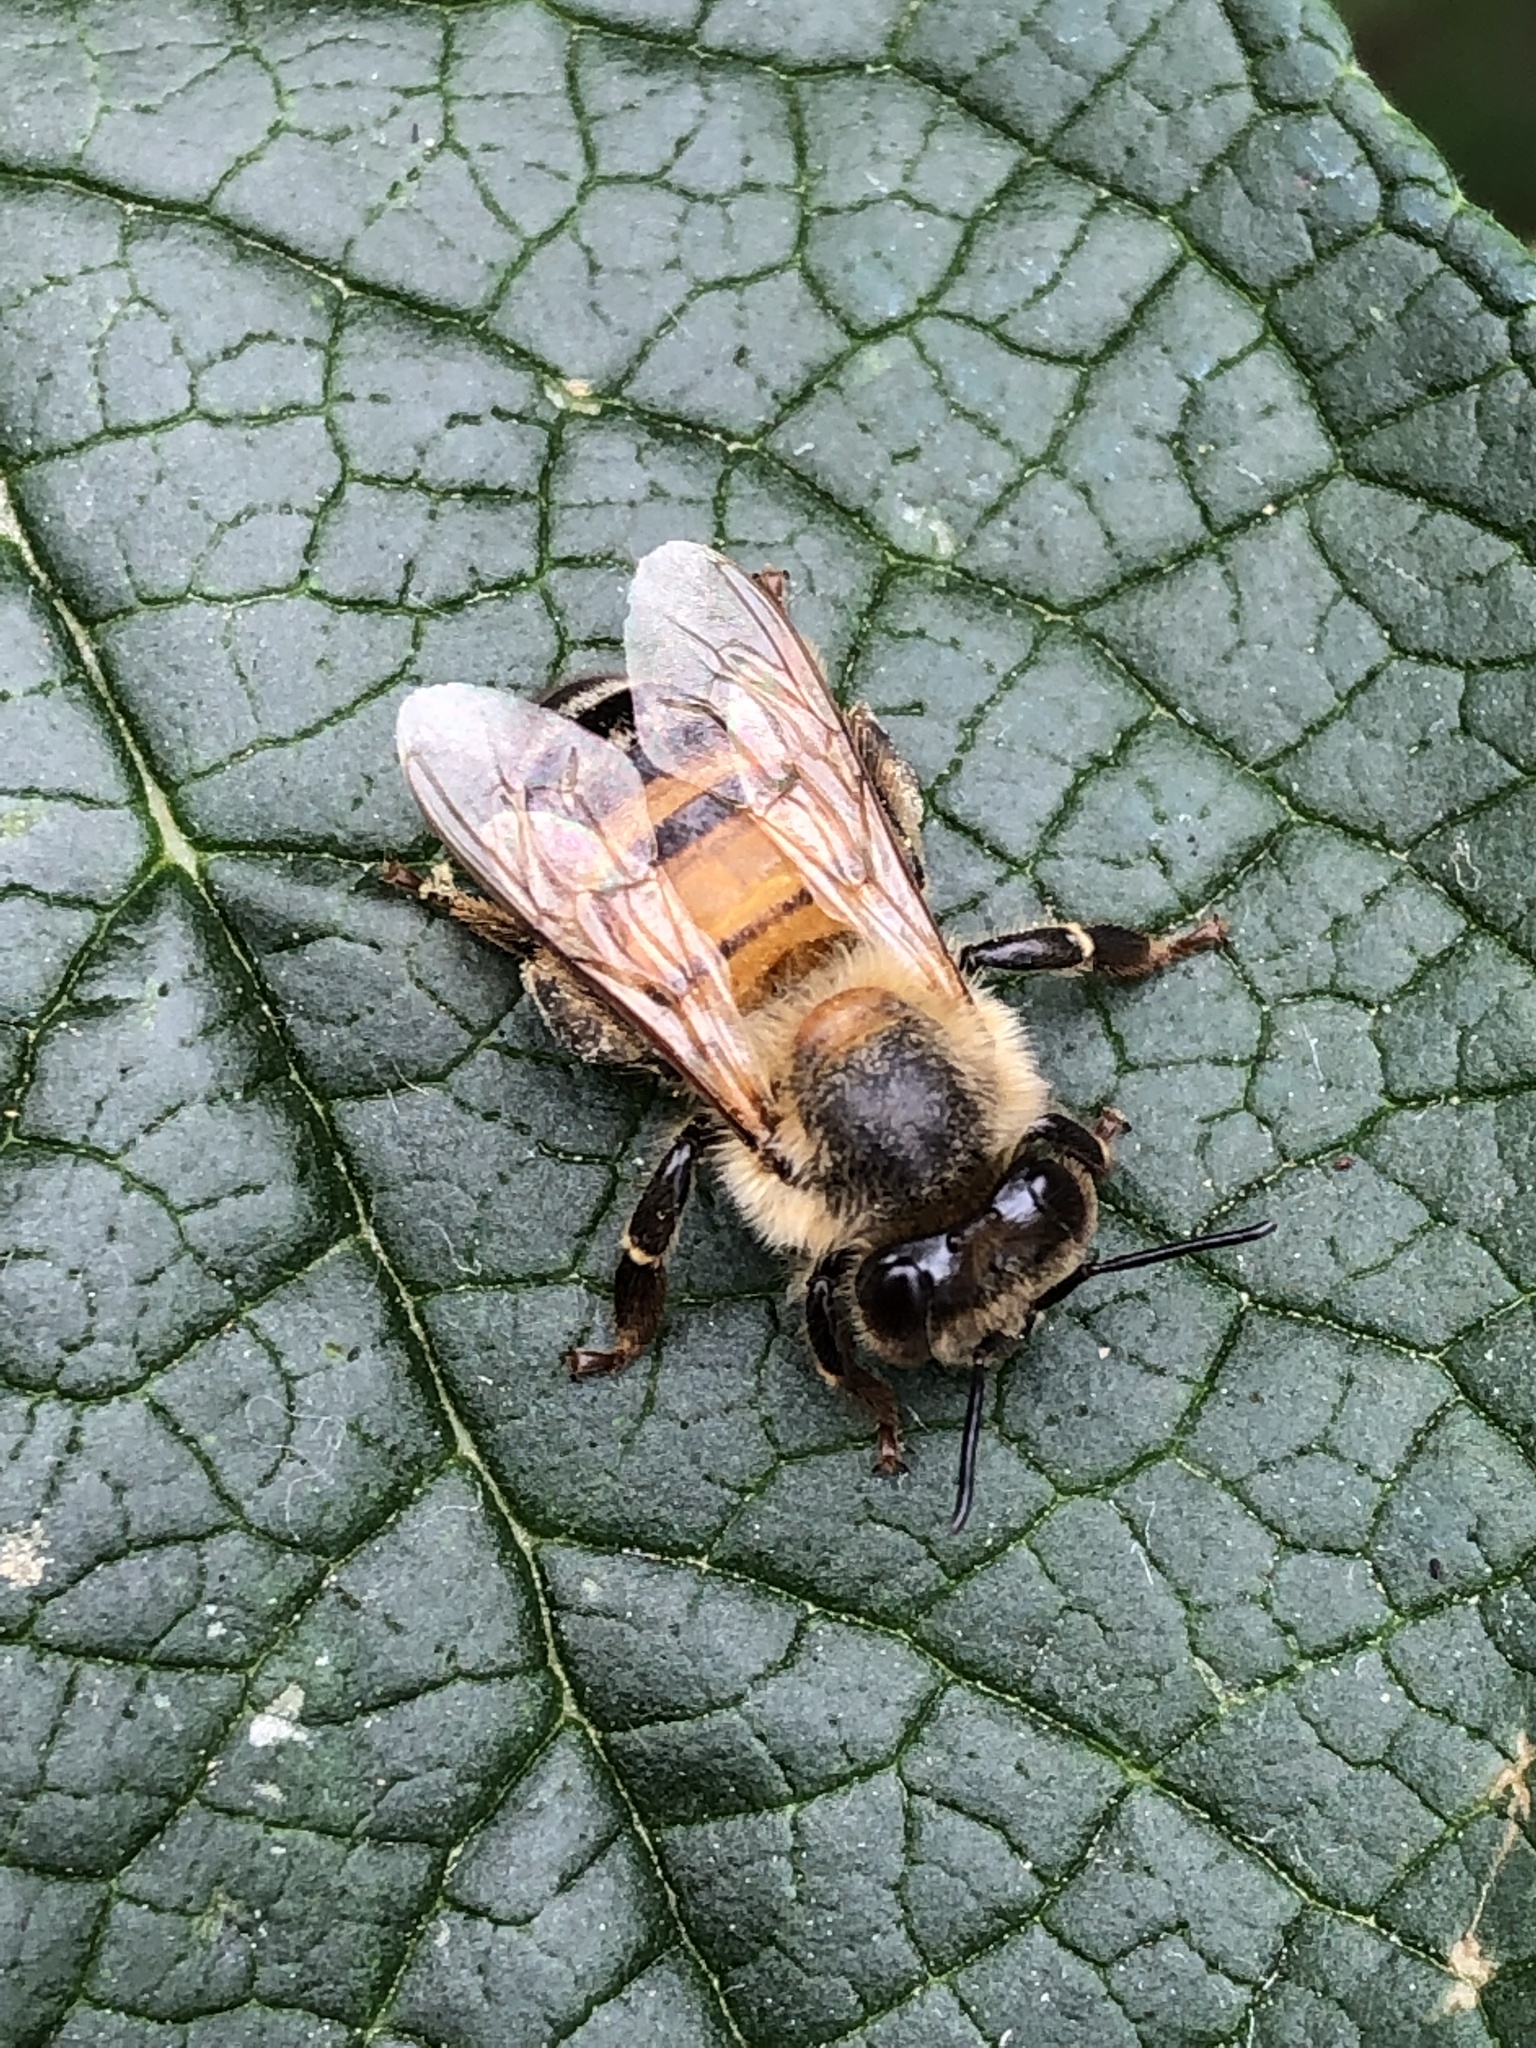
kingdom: Animalia
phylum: Arthropoda
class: Insecta
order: Hymenoptera
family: Apidae
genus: Apis
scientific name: Apis mellifera
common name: Honey bee
